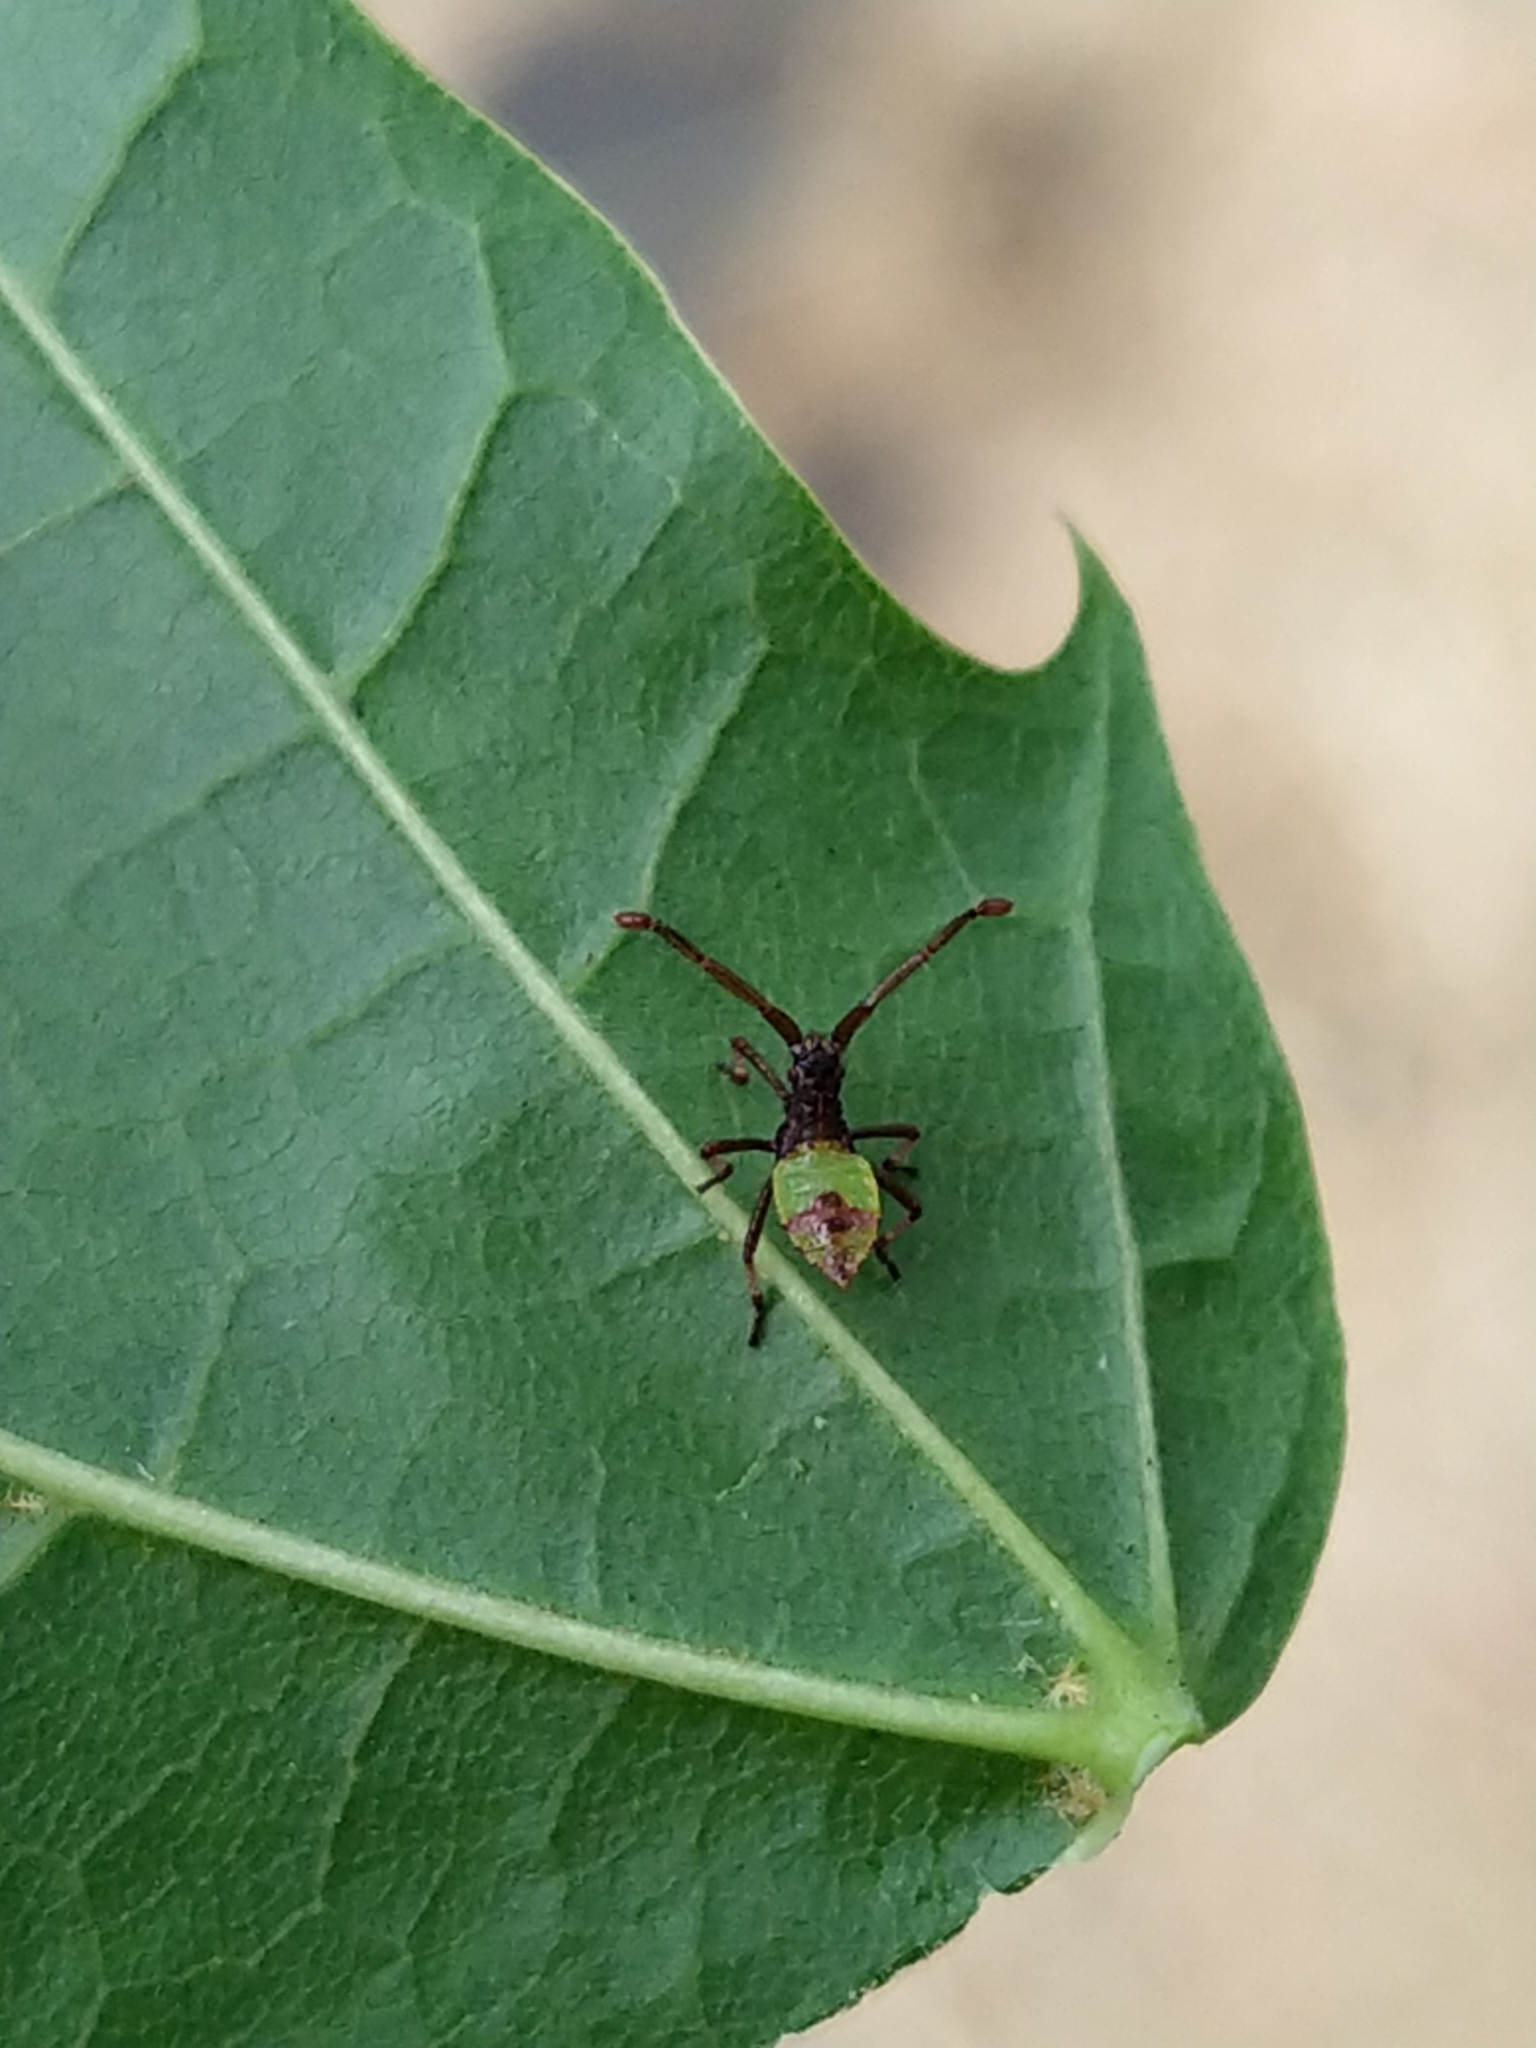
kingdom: Animalia
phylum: Arthropoda
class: Insecta
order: Hemiptera
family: Coreidae
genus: Gonocerus
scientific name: Gonocerus acuteangulatus
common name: Box bug
